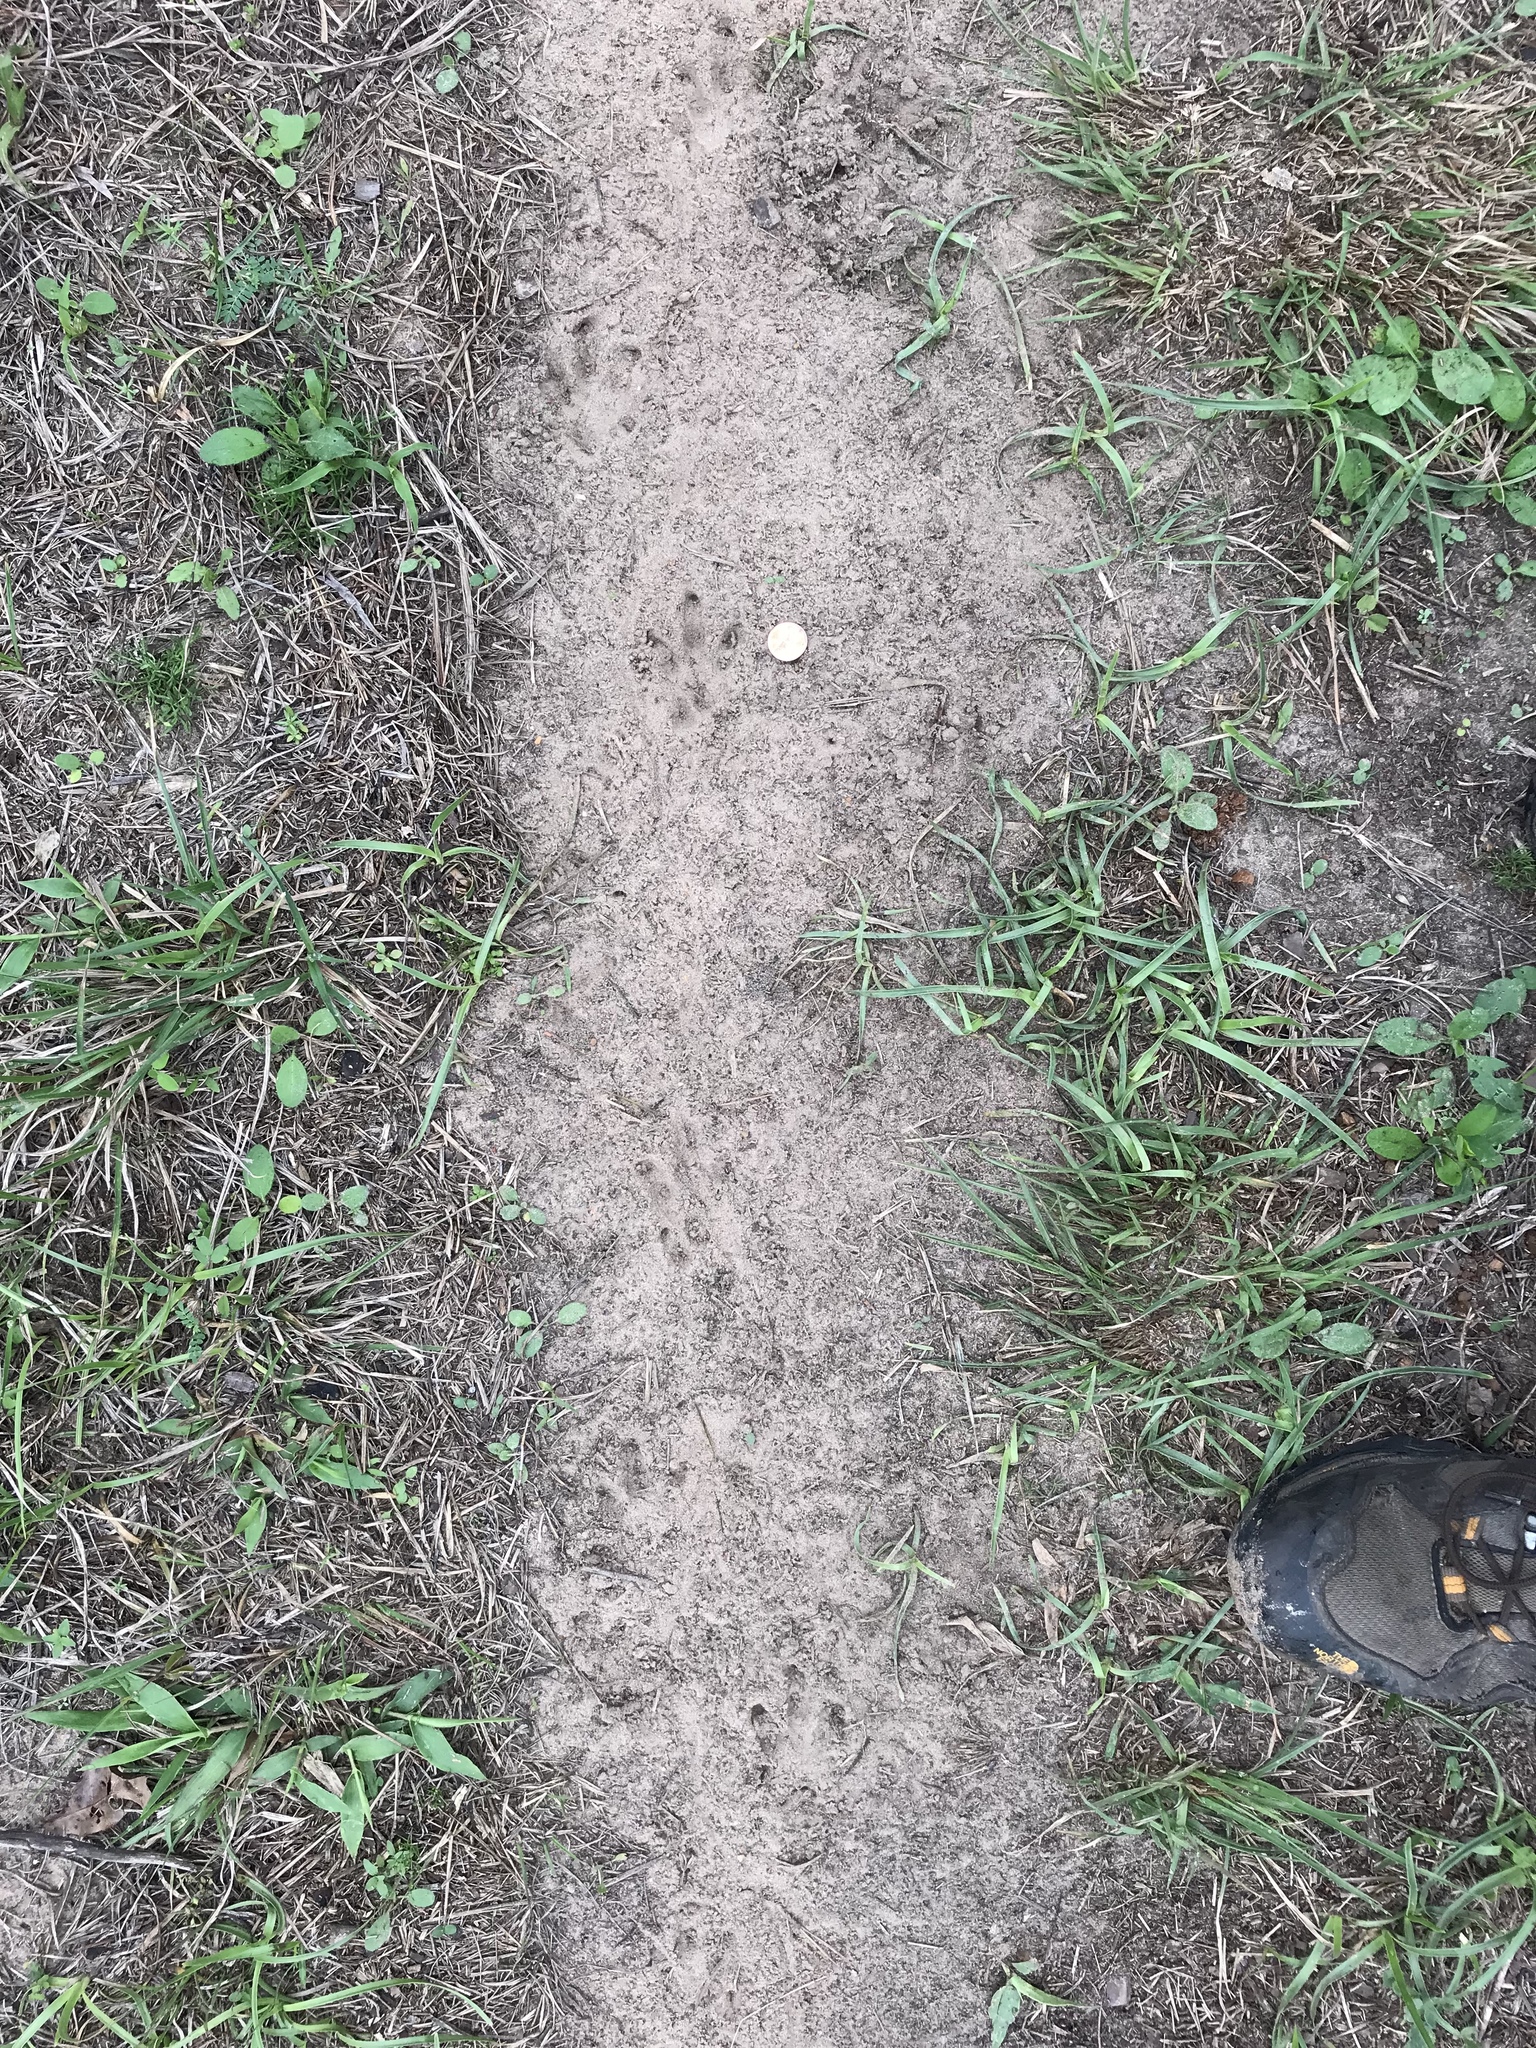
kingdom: Animalia
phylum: Chordata
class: Mammalia
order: Cingulata
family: Dasypodidae
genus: Dasypus
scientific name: Dasypus novemcinctus
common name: Nine-banded armadillo
